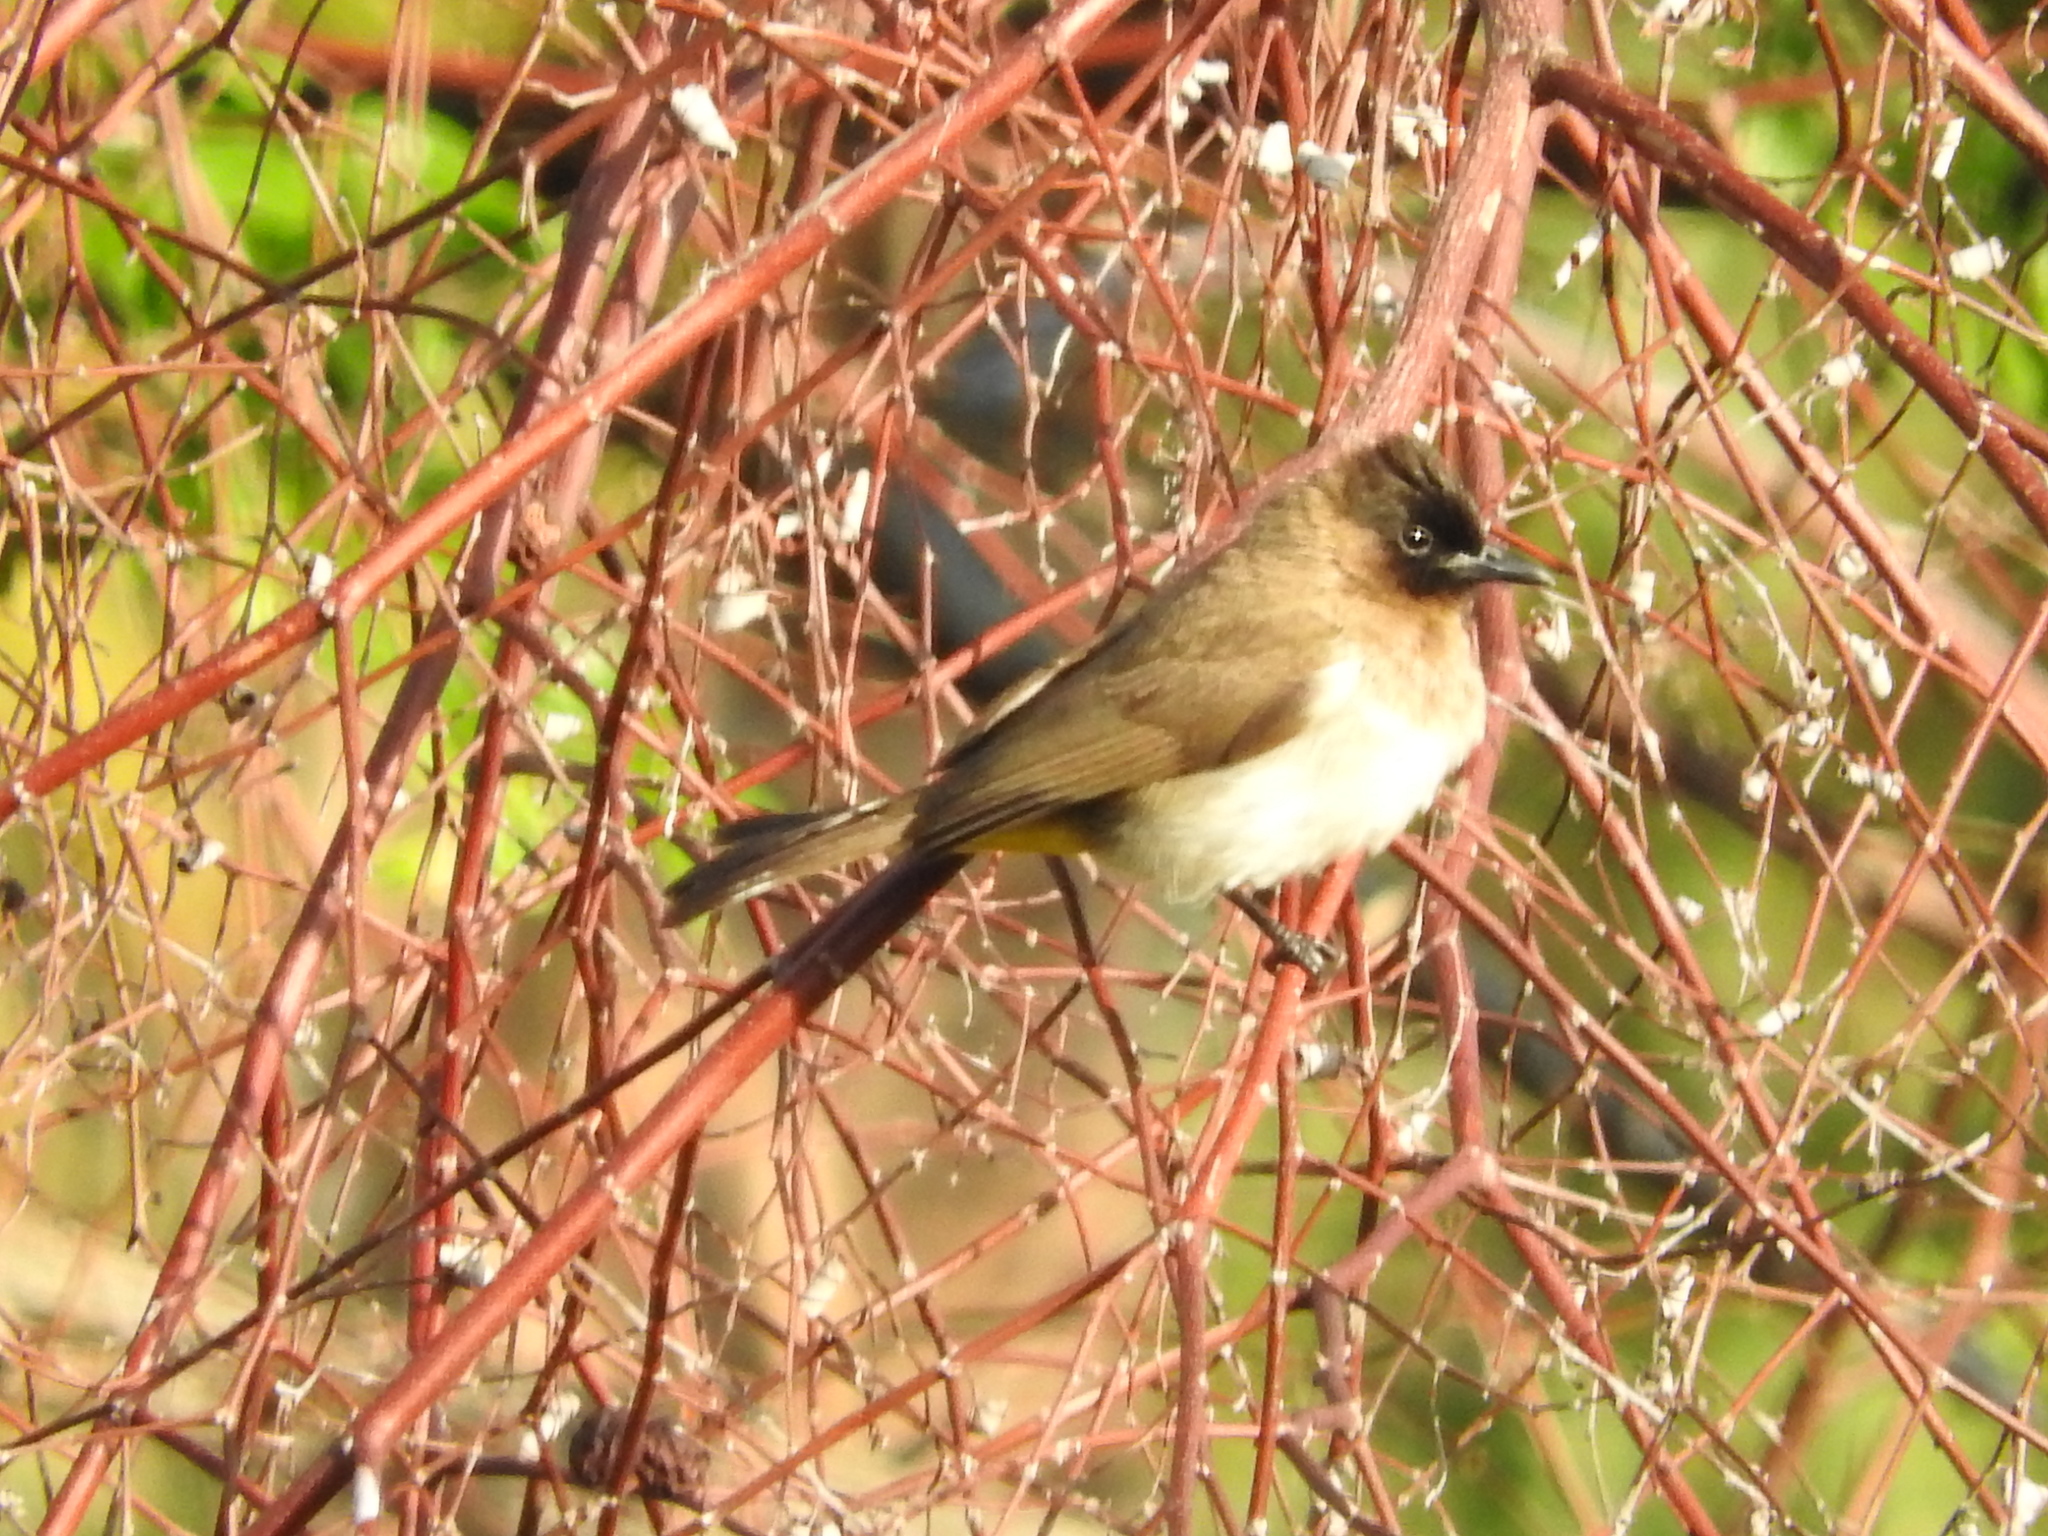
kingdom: Animalia
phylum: Chordata
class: Aves
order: Passeriformes
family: Pycnonotidae
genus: Pycnonotus
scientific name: Pycnonotus barbatus
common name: Common bulbul
